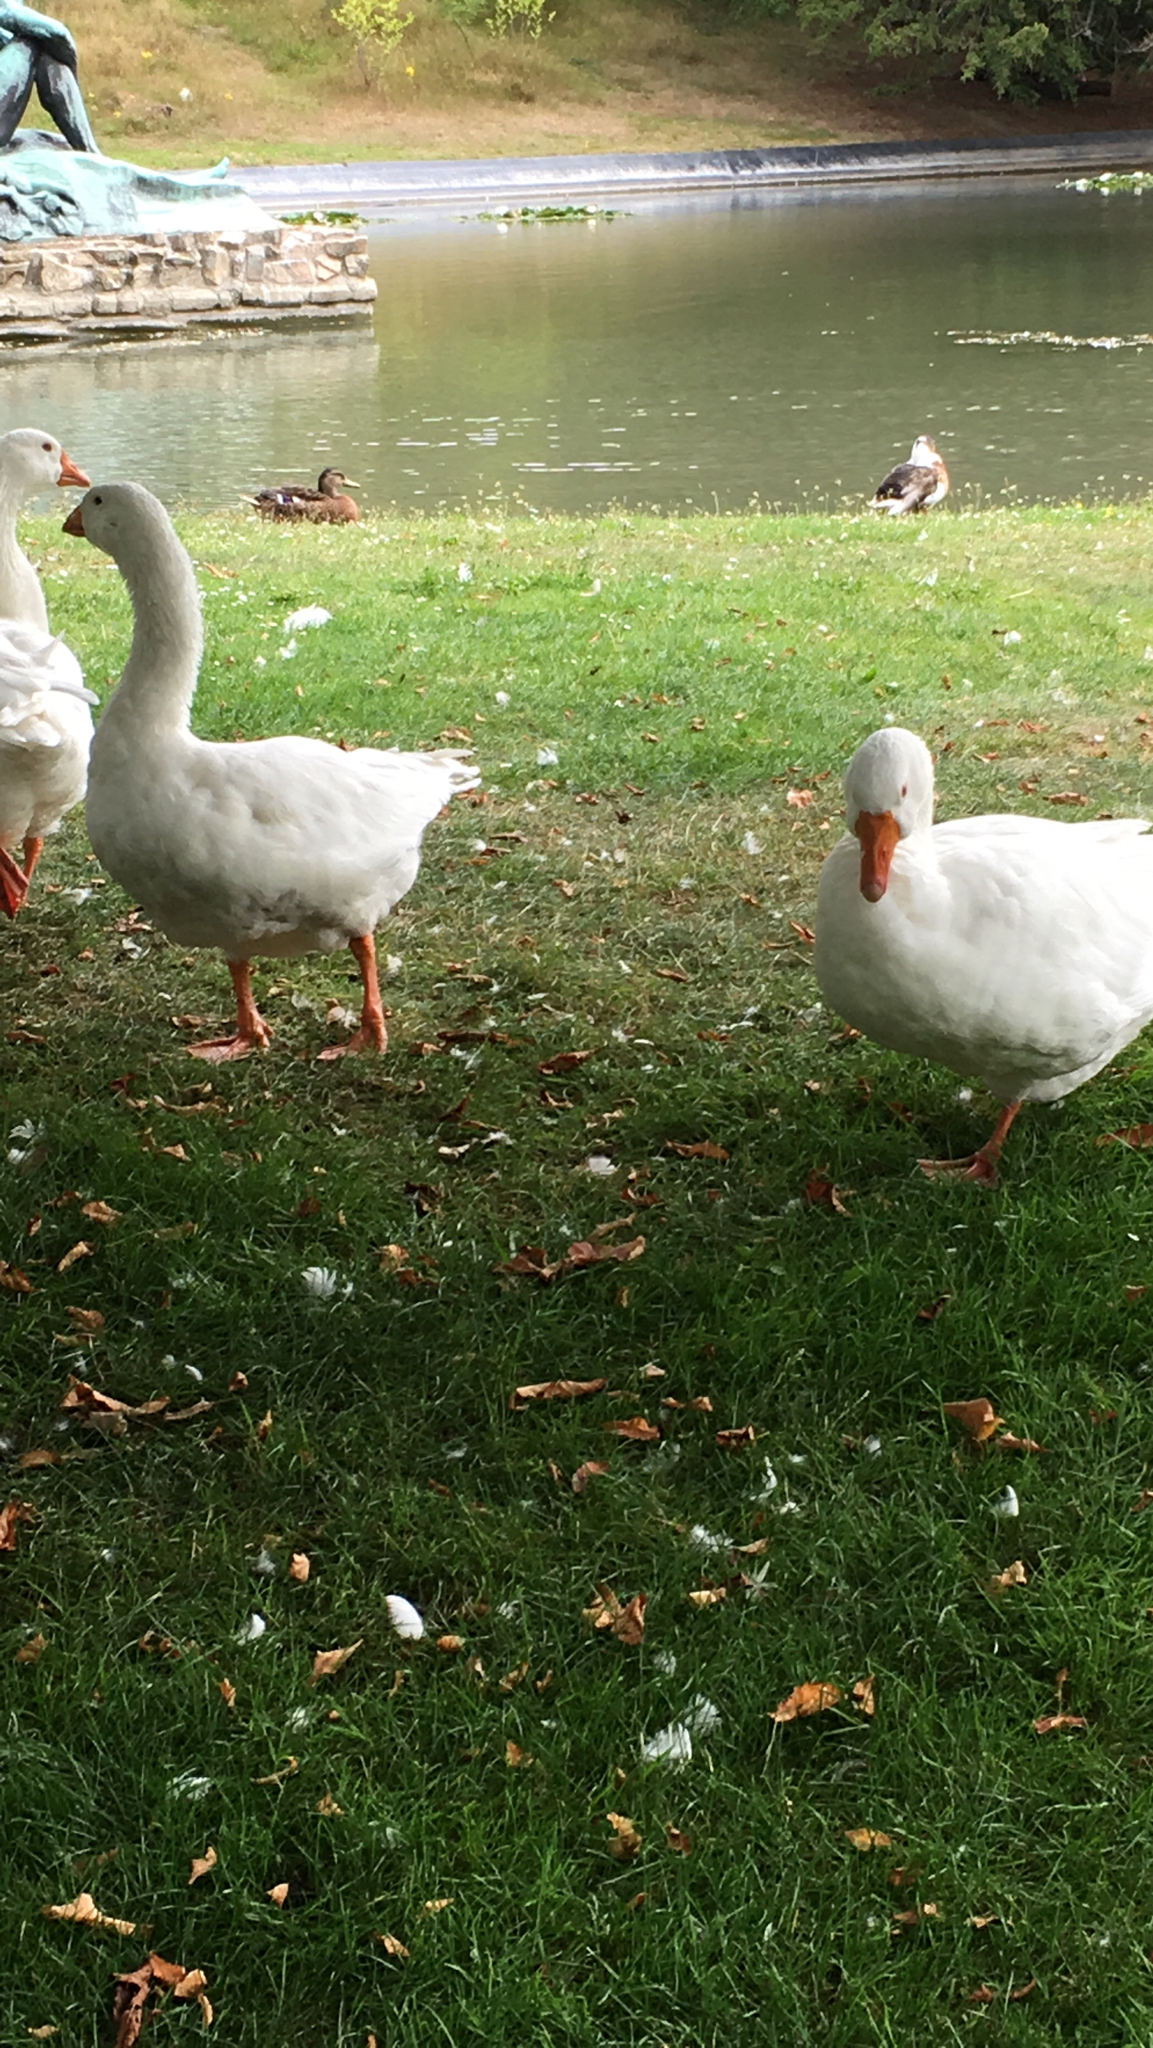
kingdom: Animalia
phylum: Chordata
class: Aves
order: Anseriformes
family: Anatidae
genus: Anser
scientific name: Anser anser
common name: Greylag goose
